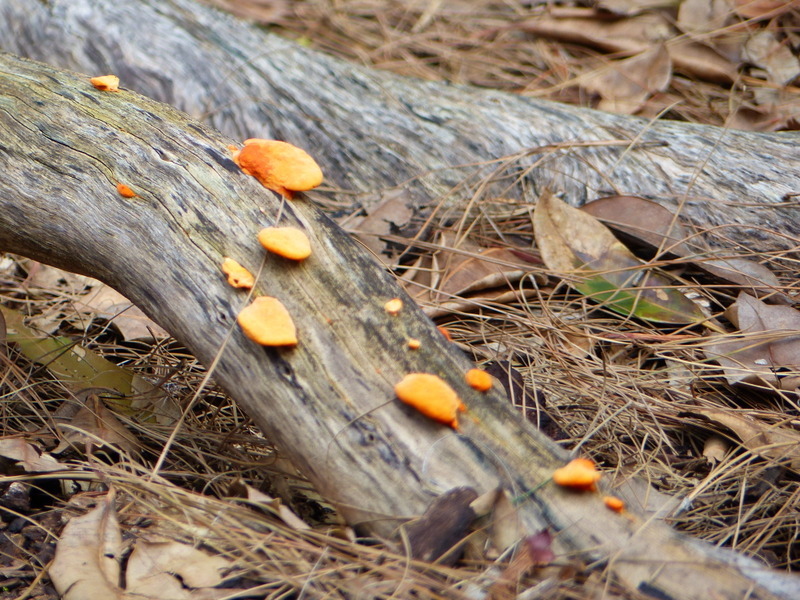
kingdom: Fungi
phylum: Basidiomycota
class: Agaricomycetes
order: Polyporales
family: Polyporaceae
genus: Trametes
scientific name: Trametes coccinea
